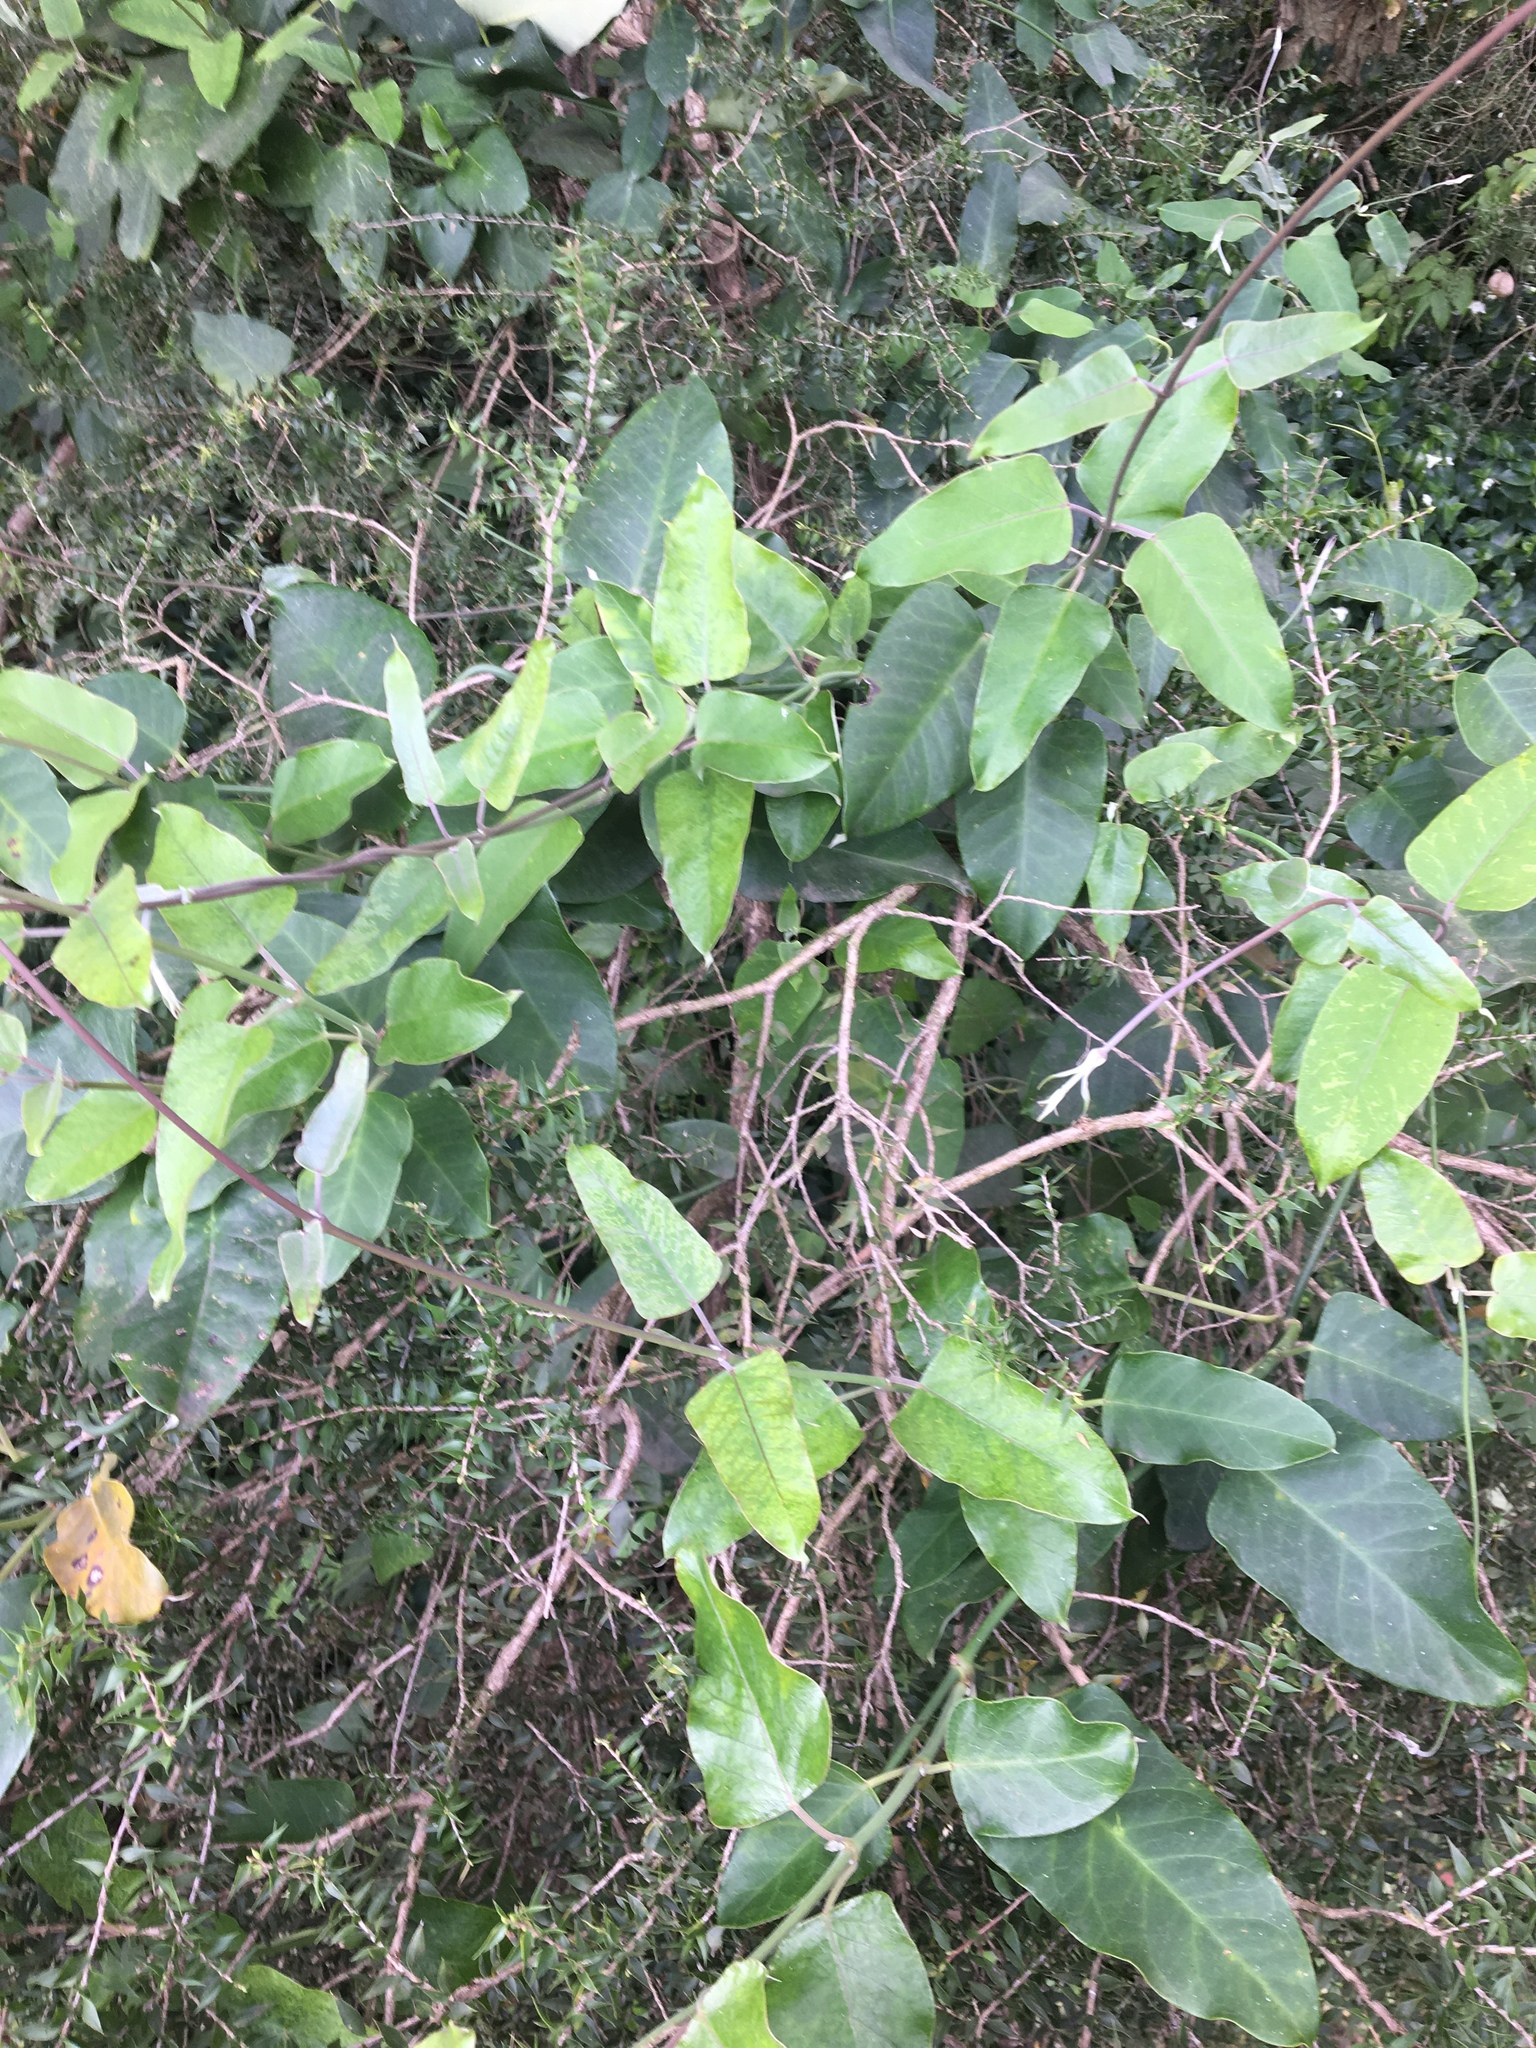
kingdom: Plantae
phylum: Tracheophyta
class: Magnoliopsida
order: Gentianales
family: Apocynaceae
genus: Araujia
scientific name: Araujia sericifera
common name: White bladderflower
